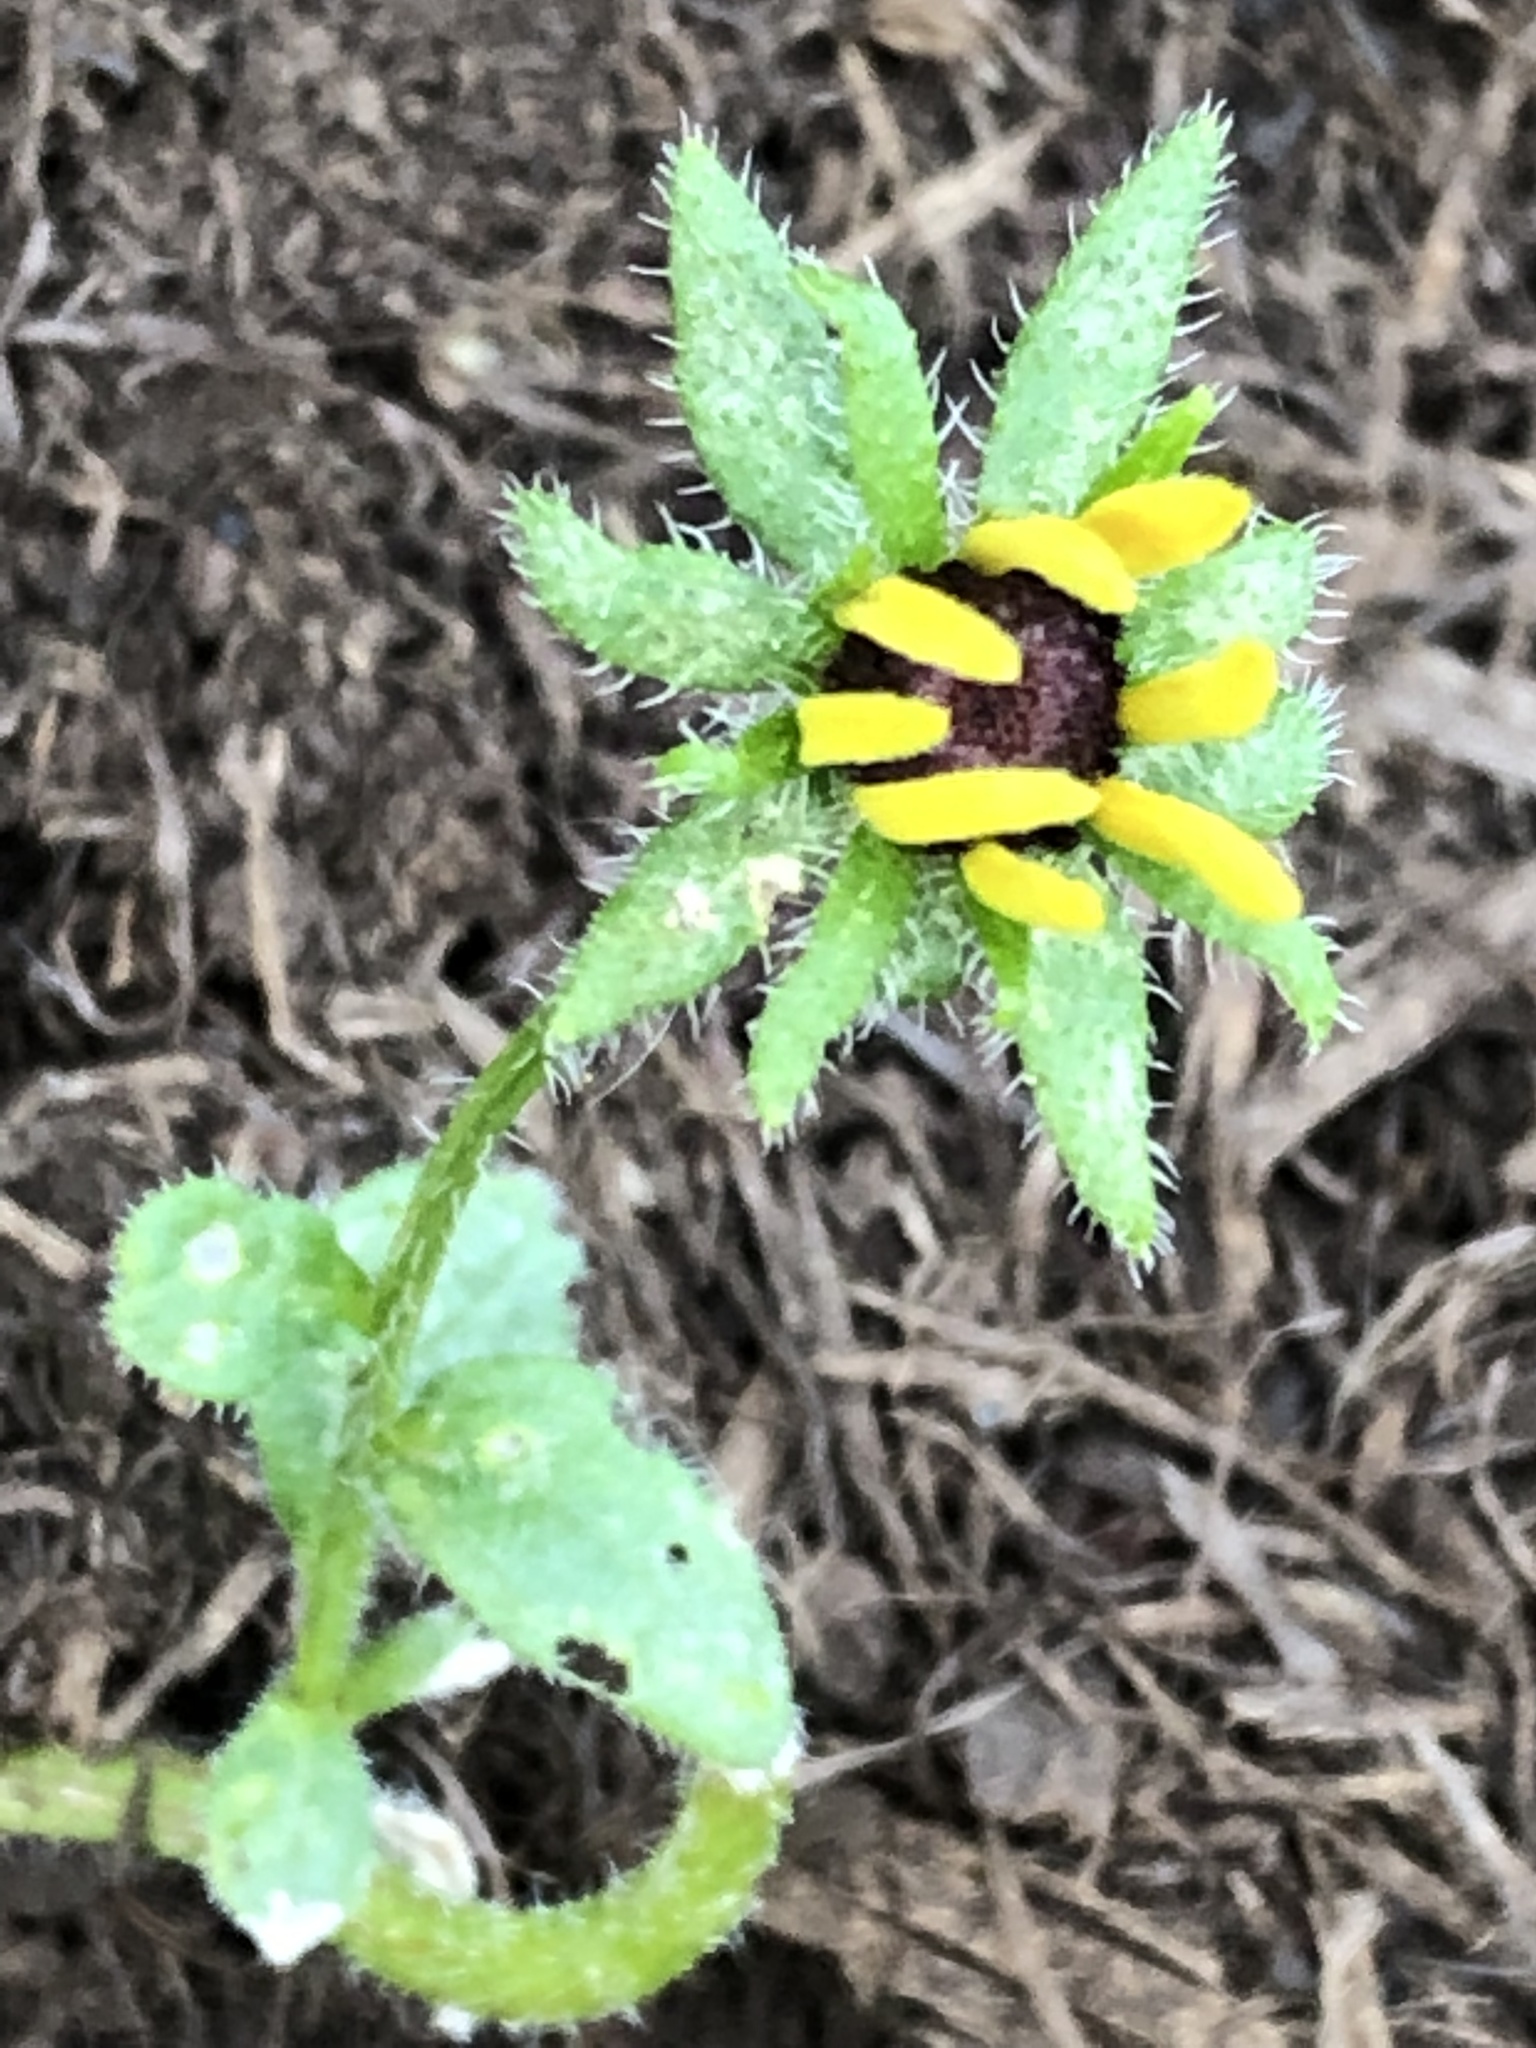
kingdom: Plantae
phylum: Tracheophyta
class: Magnoliopsida
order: Asterales
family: Asteraceae
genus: Rudbeckia
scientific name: Rudbeckia hirta
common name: Black-eyed-susan
